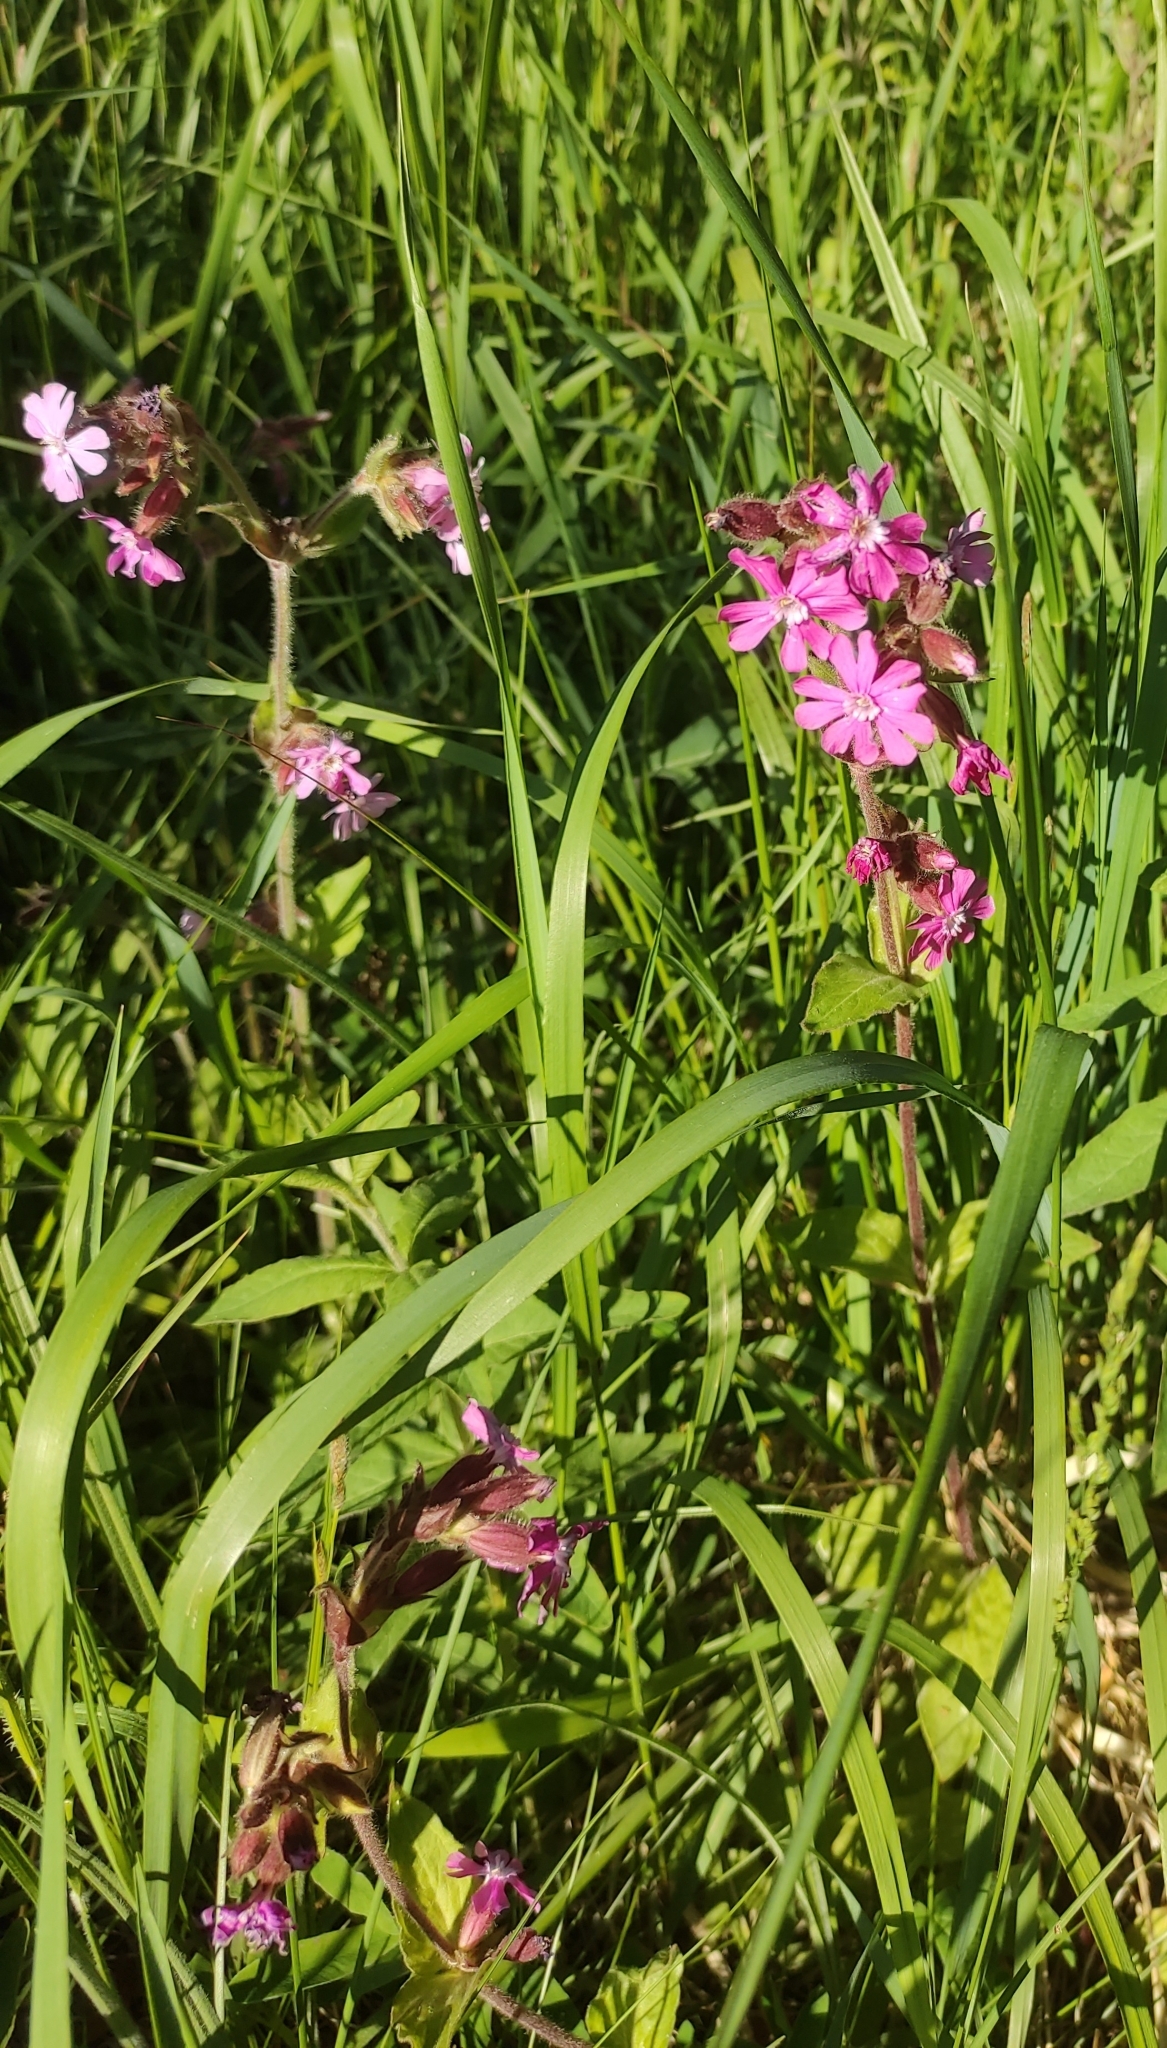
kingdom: Plantae
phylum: Tracheophyta
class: Magnoliopsida
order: Caryophyllales
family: Caryophyllaceae
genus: Silene
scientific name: Silene dioica
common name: Red campion
